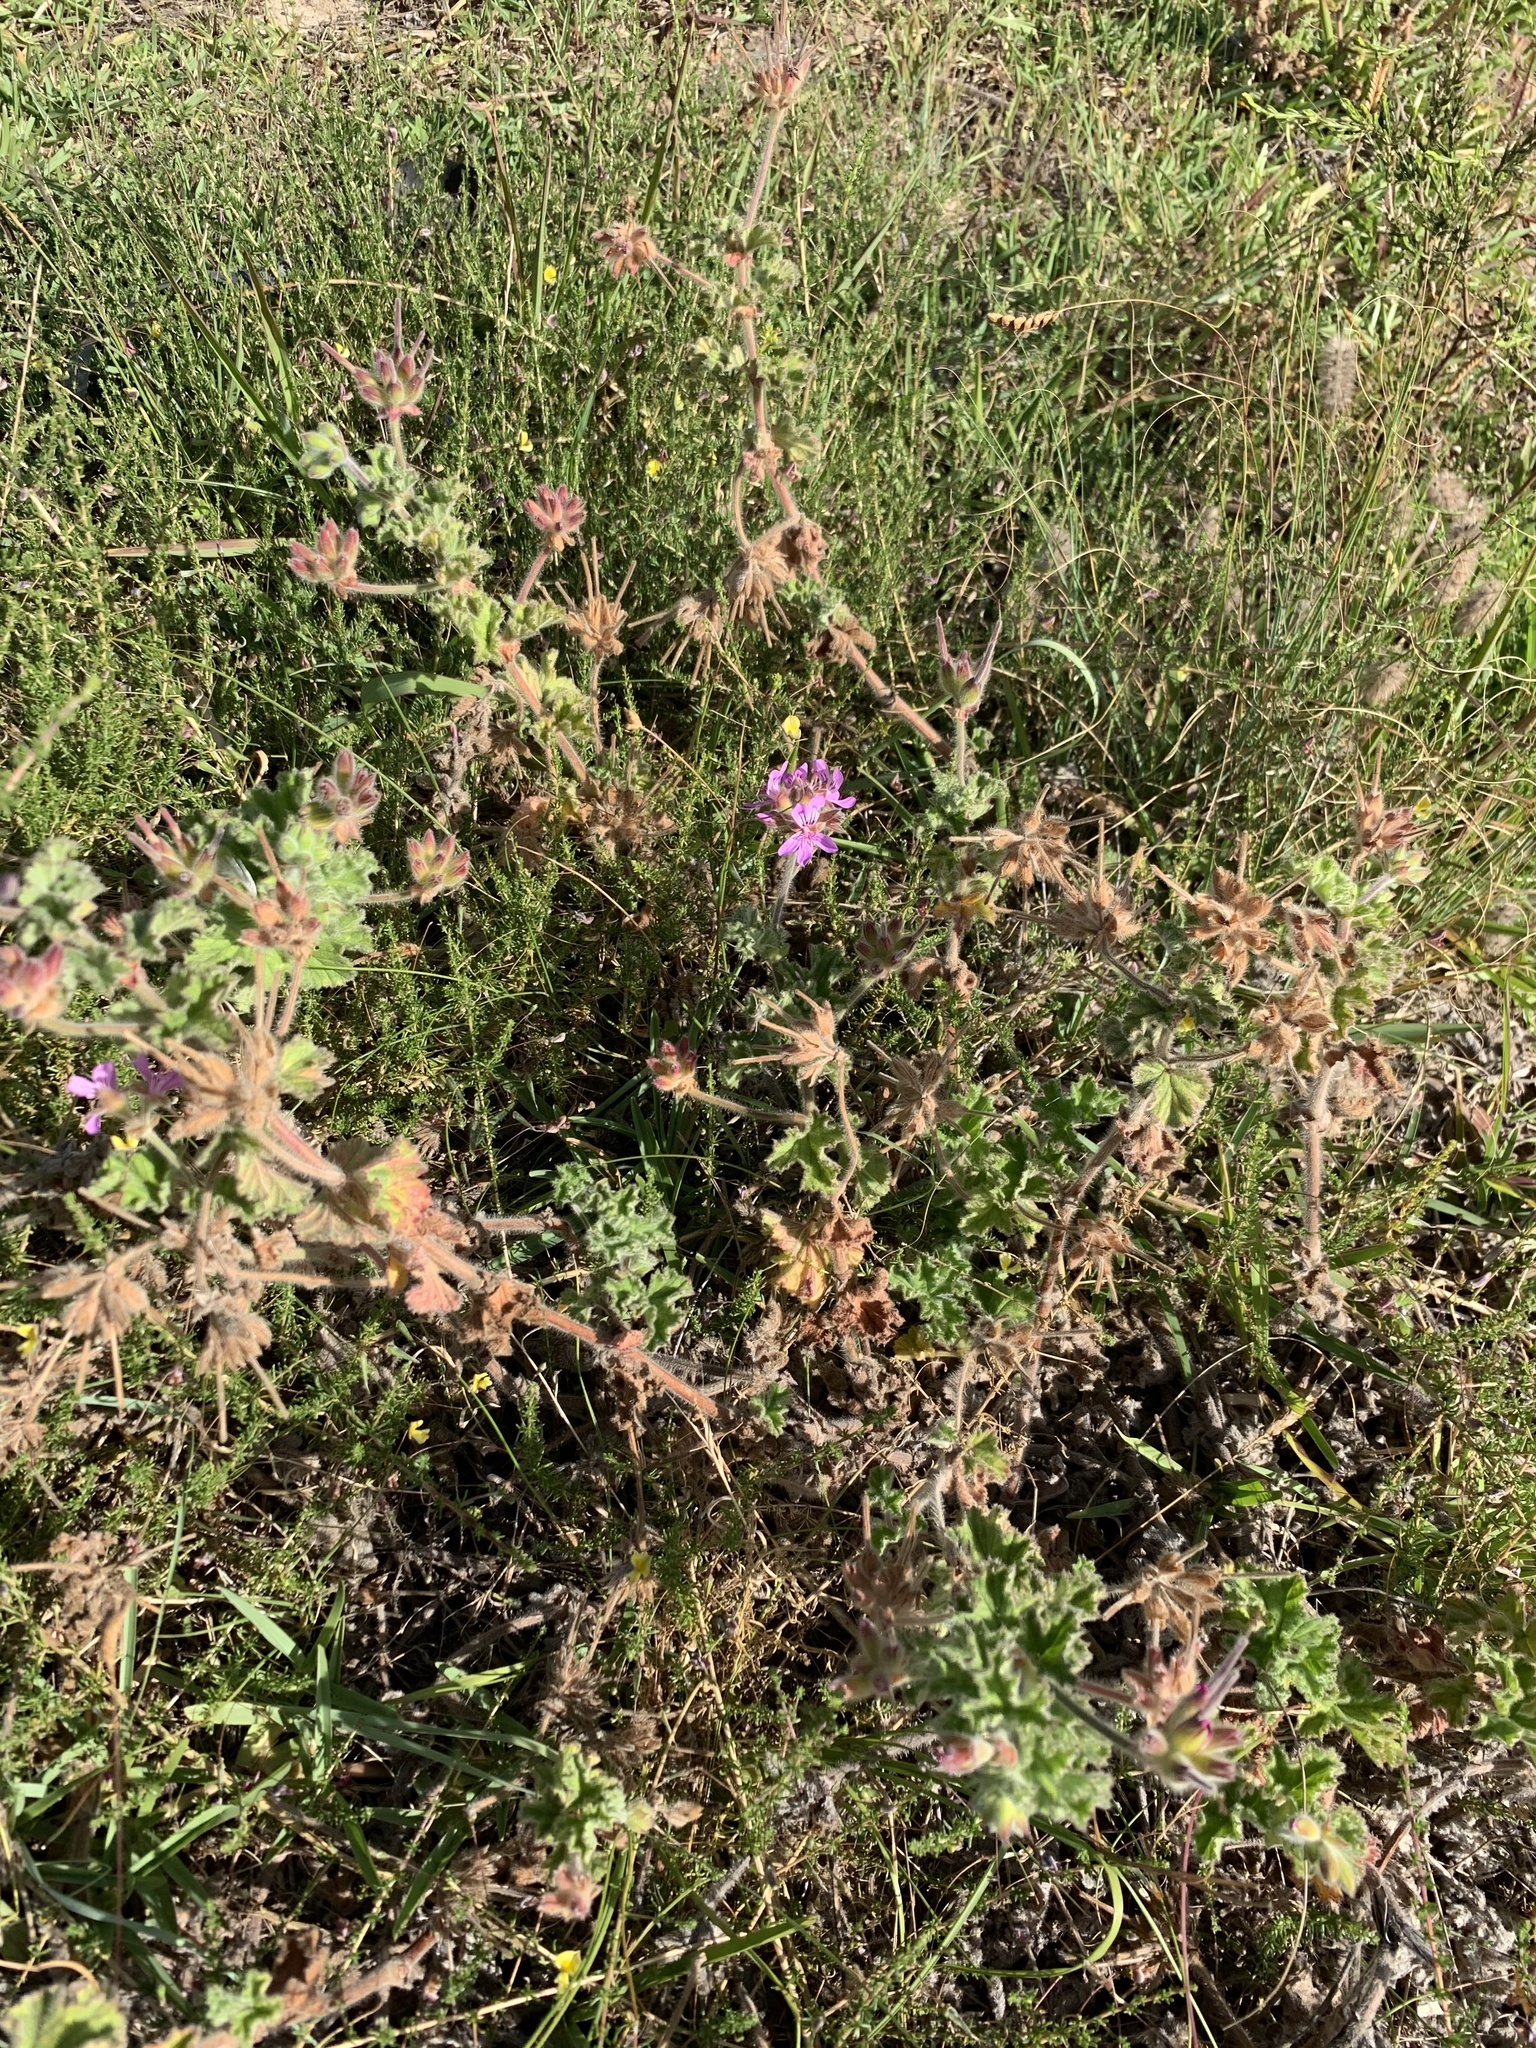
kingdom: Plantae
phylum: Tracheophyta
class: Magnoliopsida
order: Geraniales
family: Geraniaceae
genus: Pelargonium
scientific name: Pelargonium capitatum
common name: Rose scented geranium
